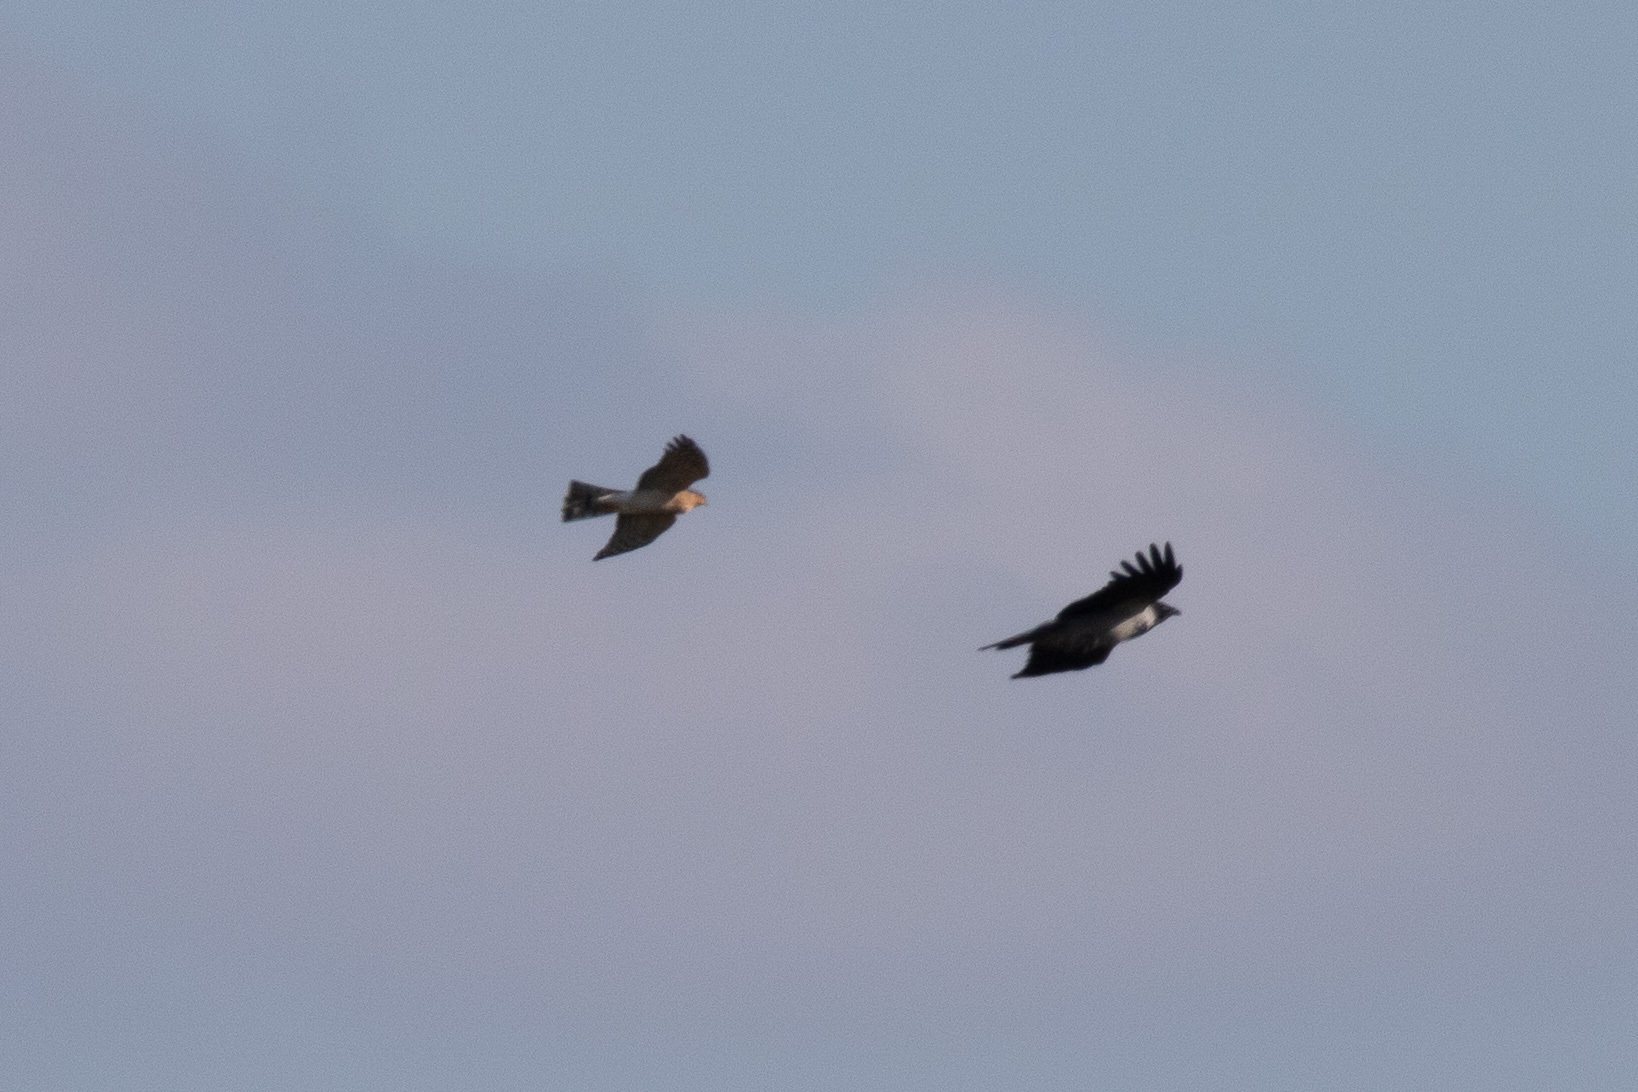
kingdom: Animalia
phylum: Chordata
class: Aves
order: Accipitriformes
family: Accipitridae
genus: Accipiter
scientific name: Accipiter nisus
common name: Eurasian sparrowhawk
